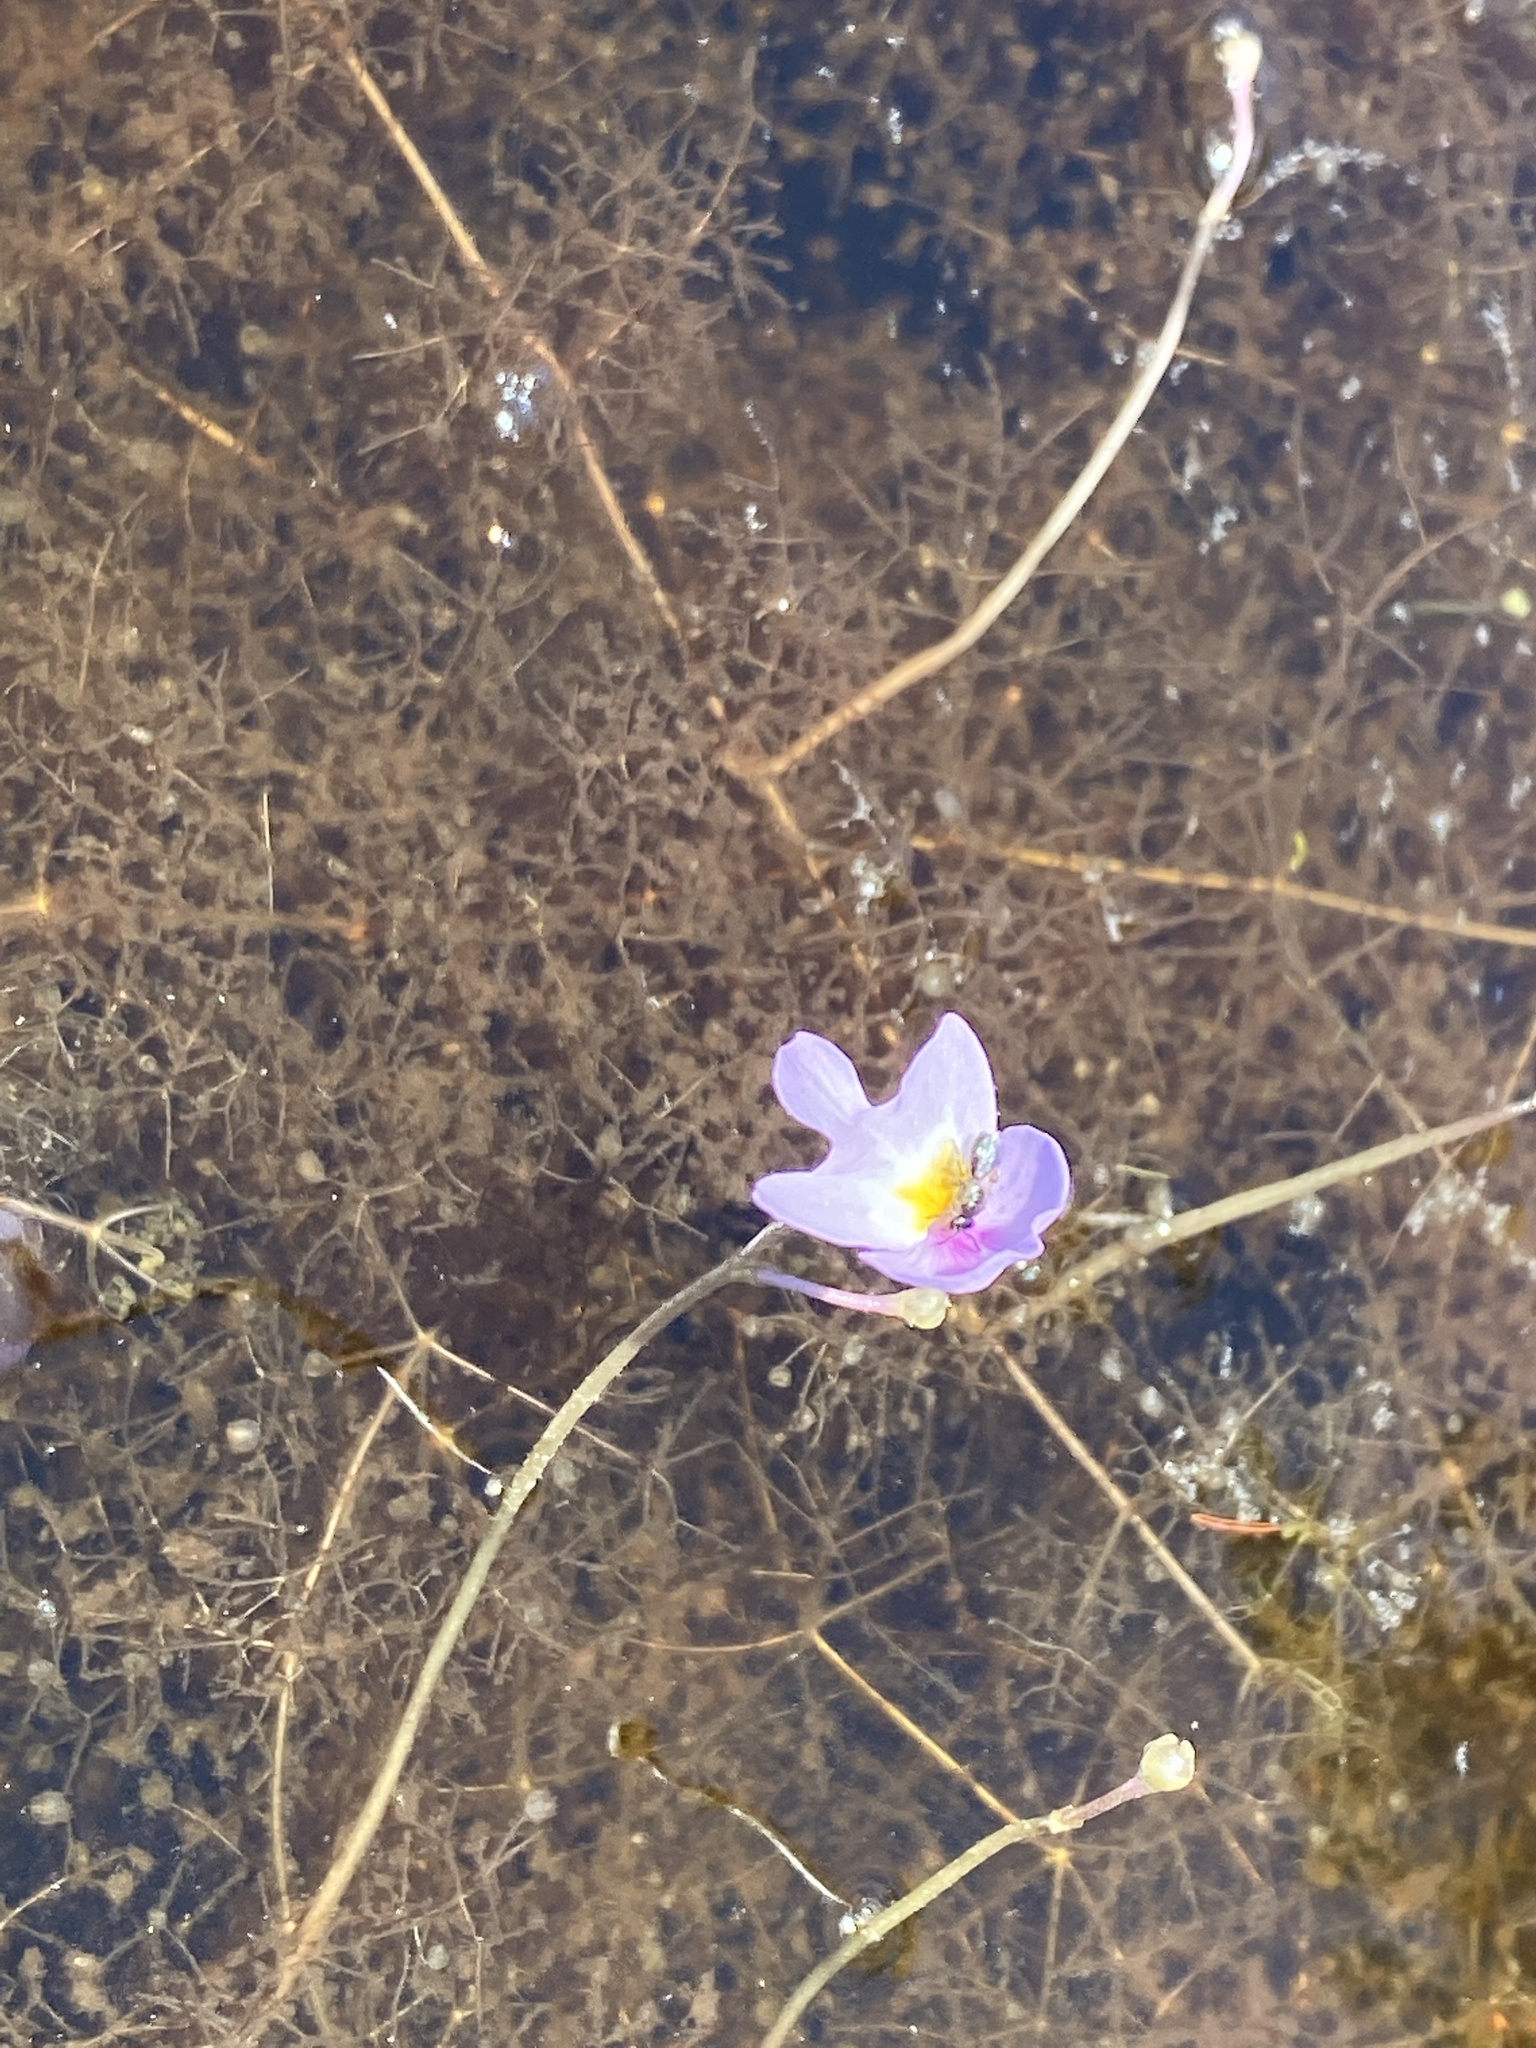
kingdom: Plantae
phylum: Tracheophyta
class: Magnoliopsida
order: Lamiales
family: Lentibulariaceae
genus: Utricularia
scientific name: Utricularia purpurea
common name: Eastern purple bladderwort
